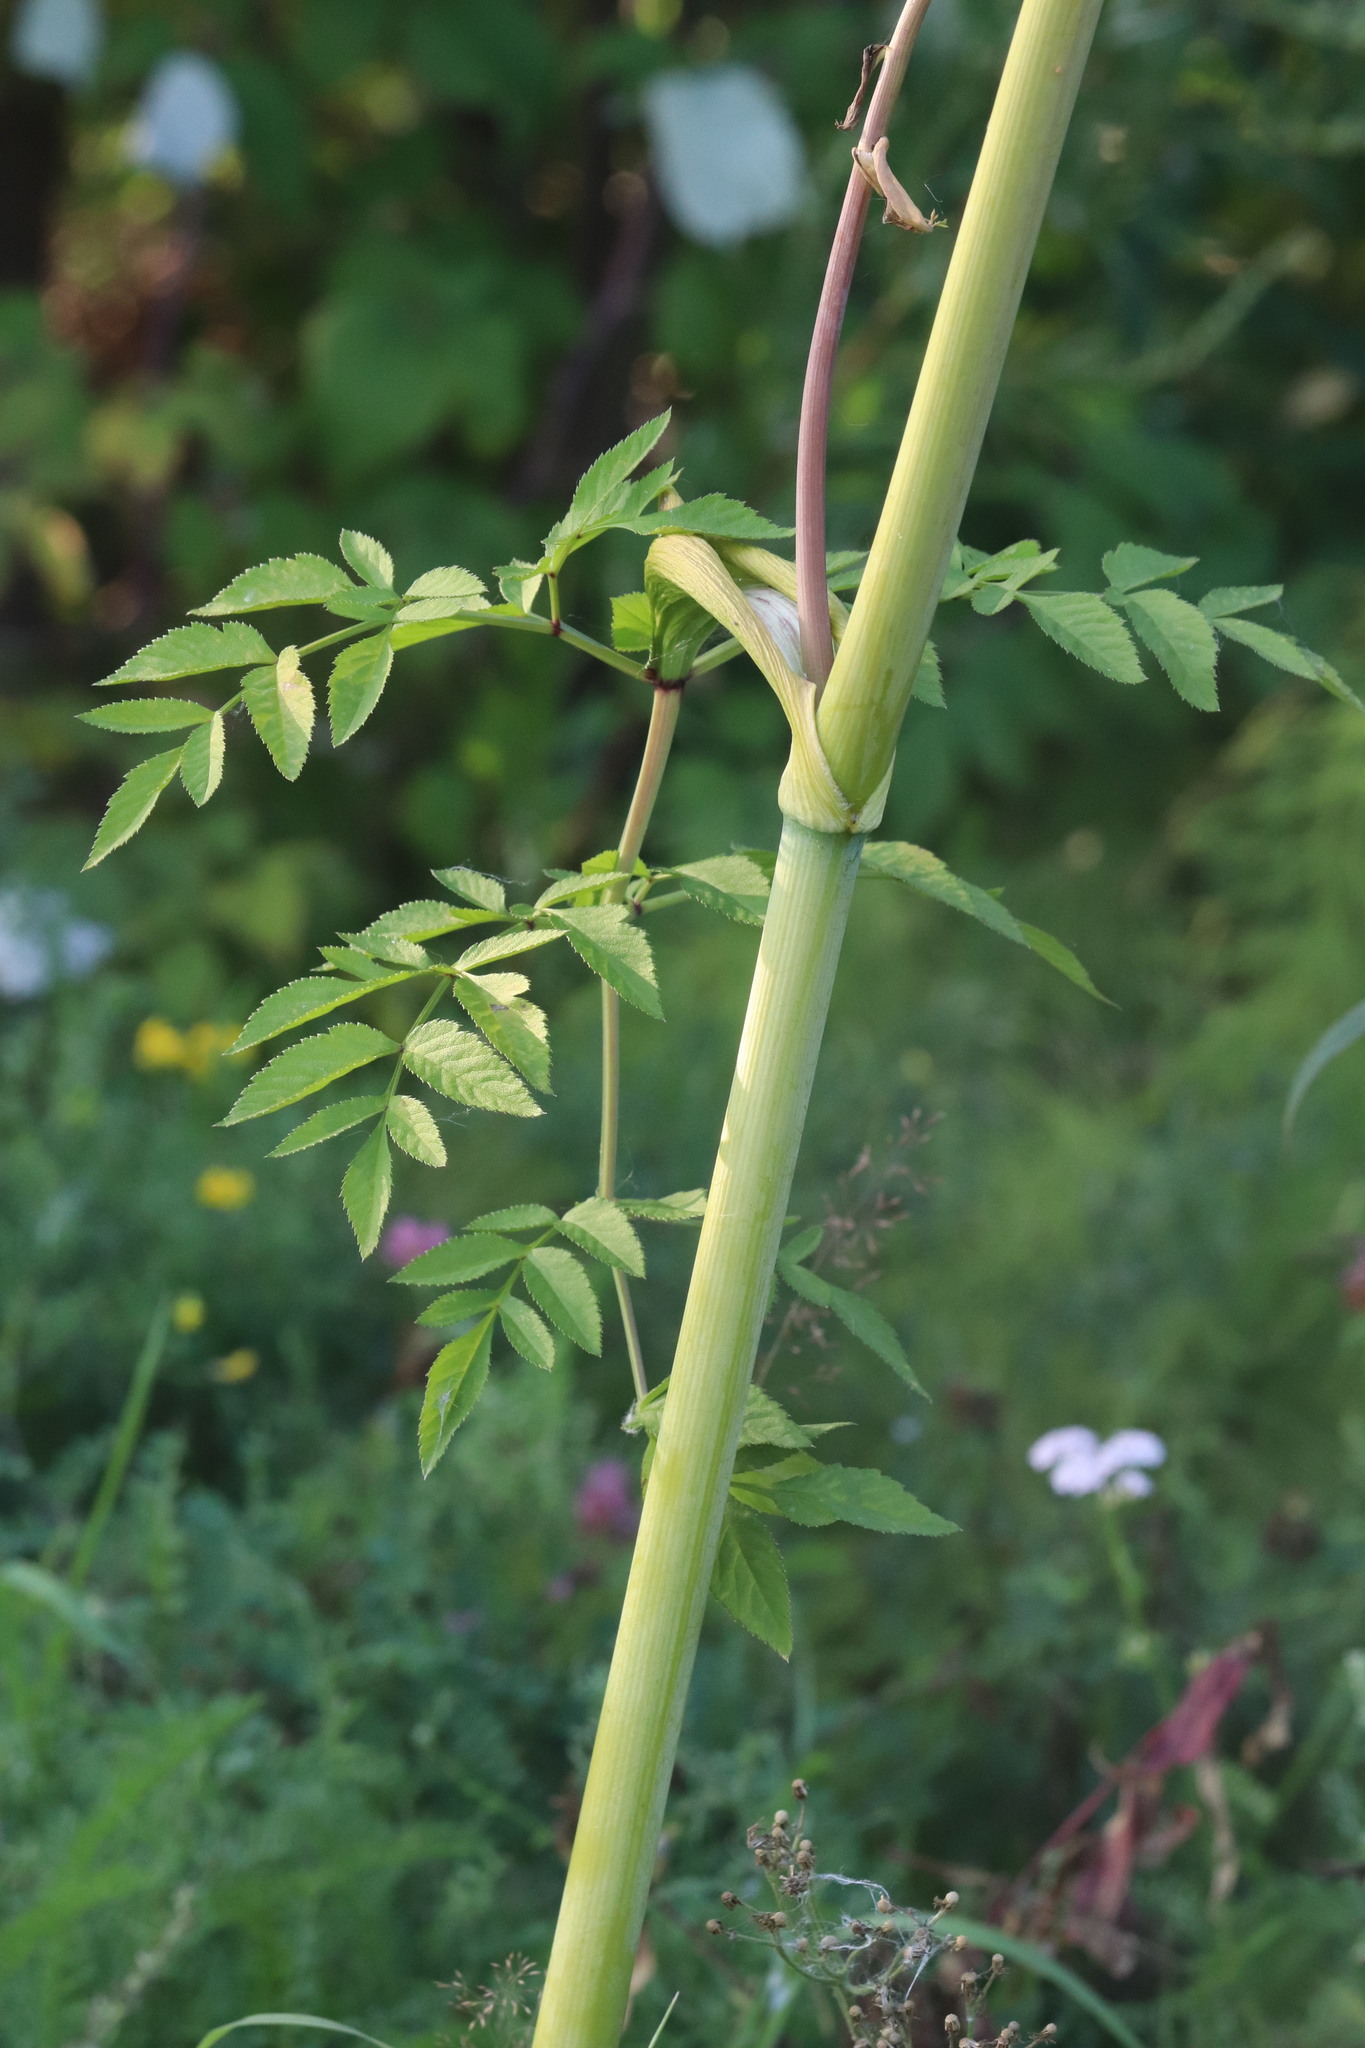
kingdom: Plantae
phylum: Tracheophyta
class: Magnoliopsida
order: Apiales
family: Apiaceae
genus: Angelica
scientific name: Angelica sylvestris
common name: Wild angelica
